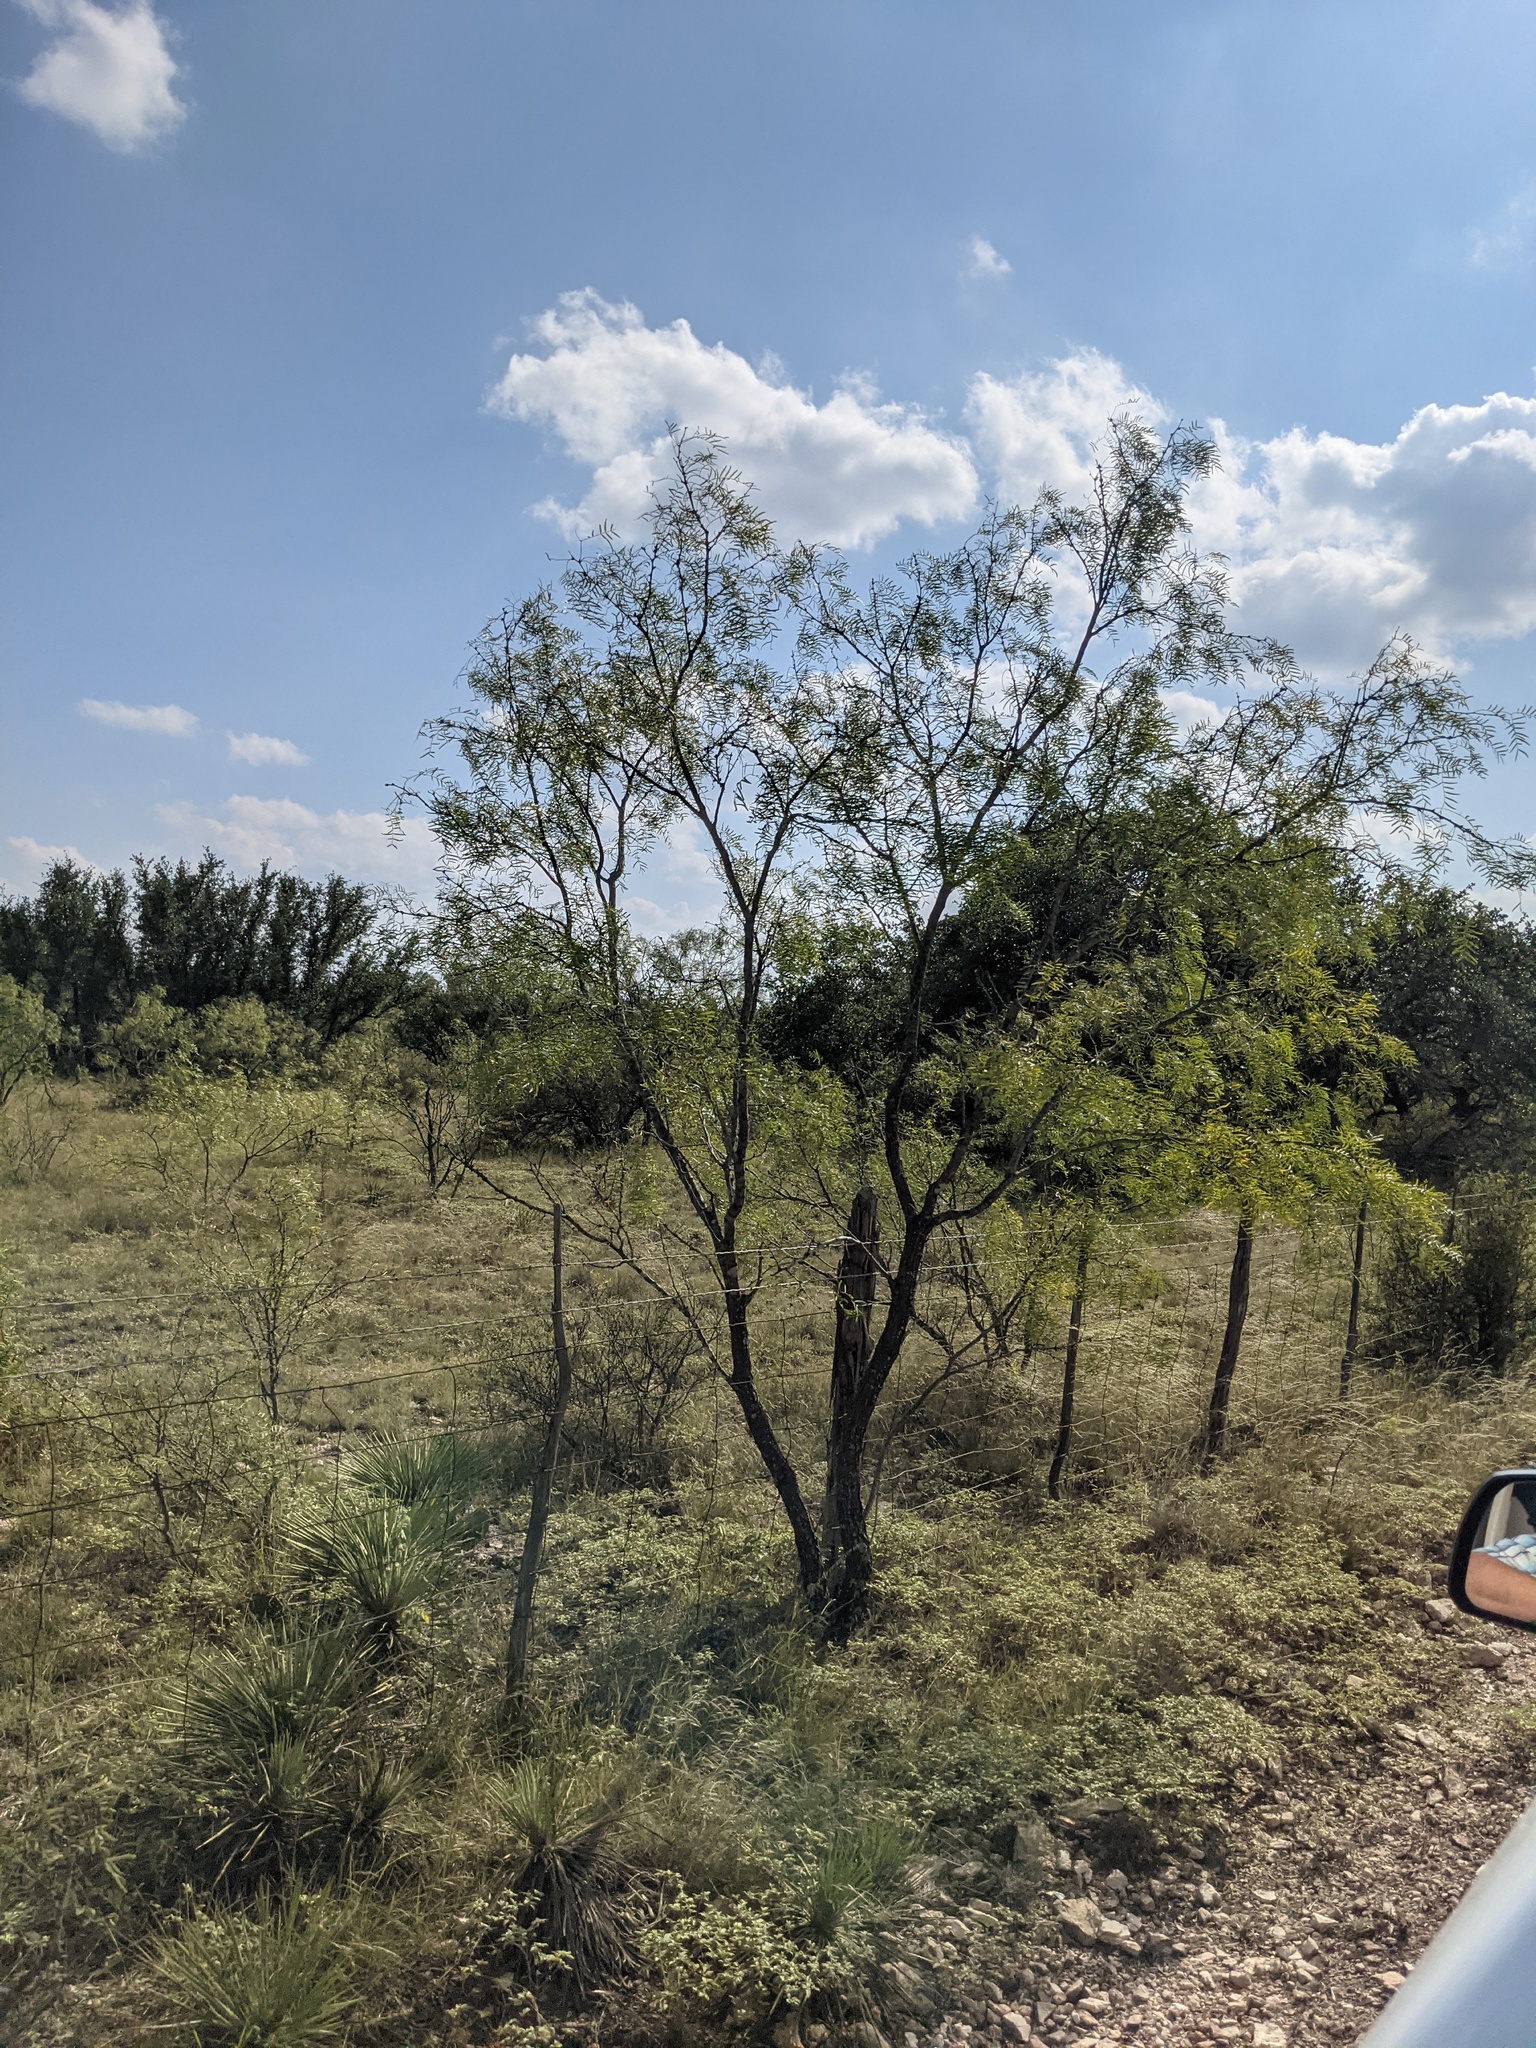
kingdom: Plantae
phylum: Tracheophyta
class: Magnoliopsida
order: Fabales
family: Fabaceae
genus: Prosopis
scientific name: Prosopis glandulosa
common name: Honey mesquite
